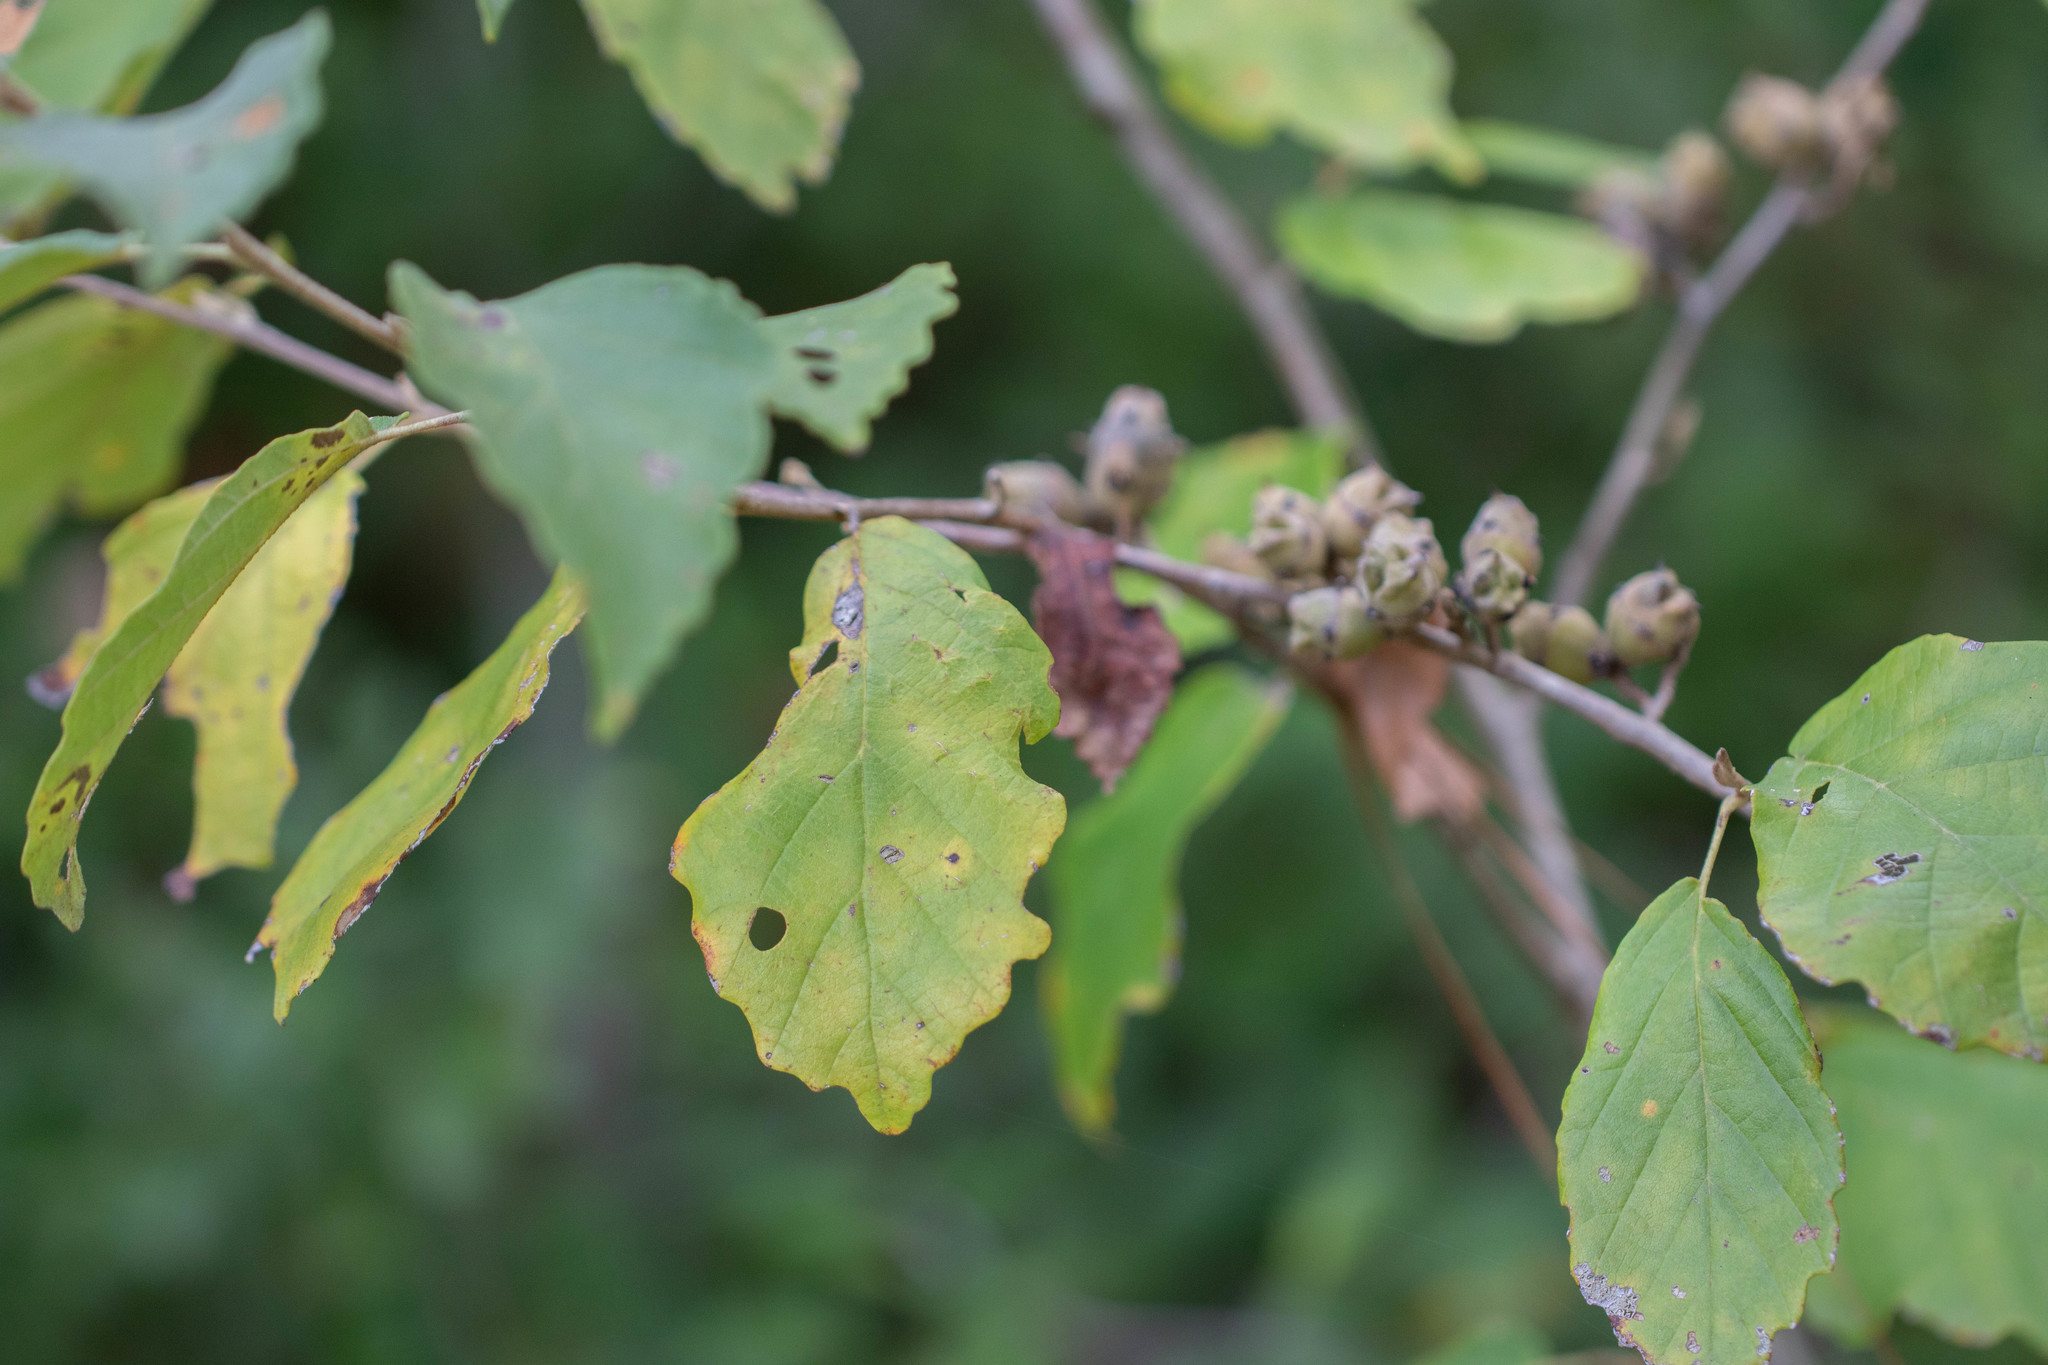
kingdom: Plantae
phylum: Tracheophyta
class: Magnoliopsida
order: Saxifragales
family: Hamamelidaceae
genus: Hamamelis
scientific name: Hamamelis virginiana
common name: Witch-hazel
